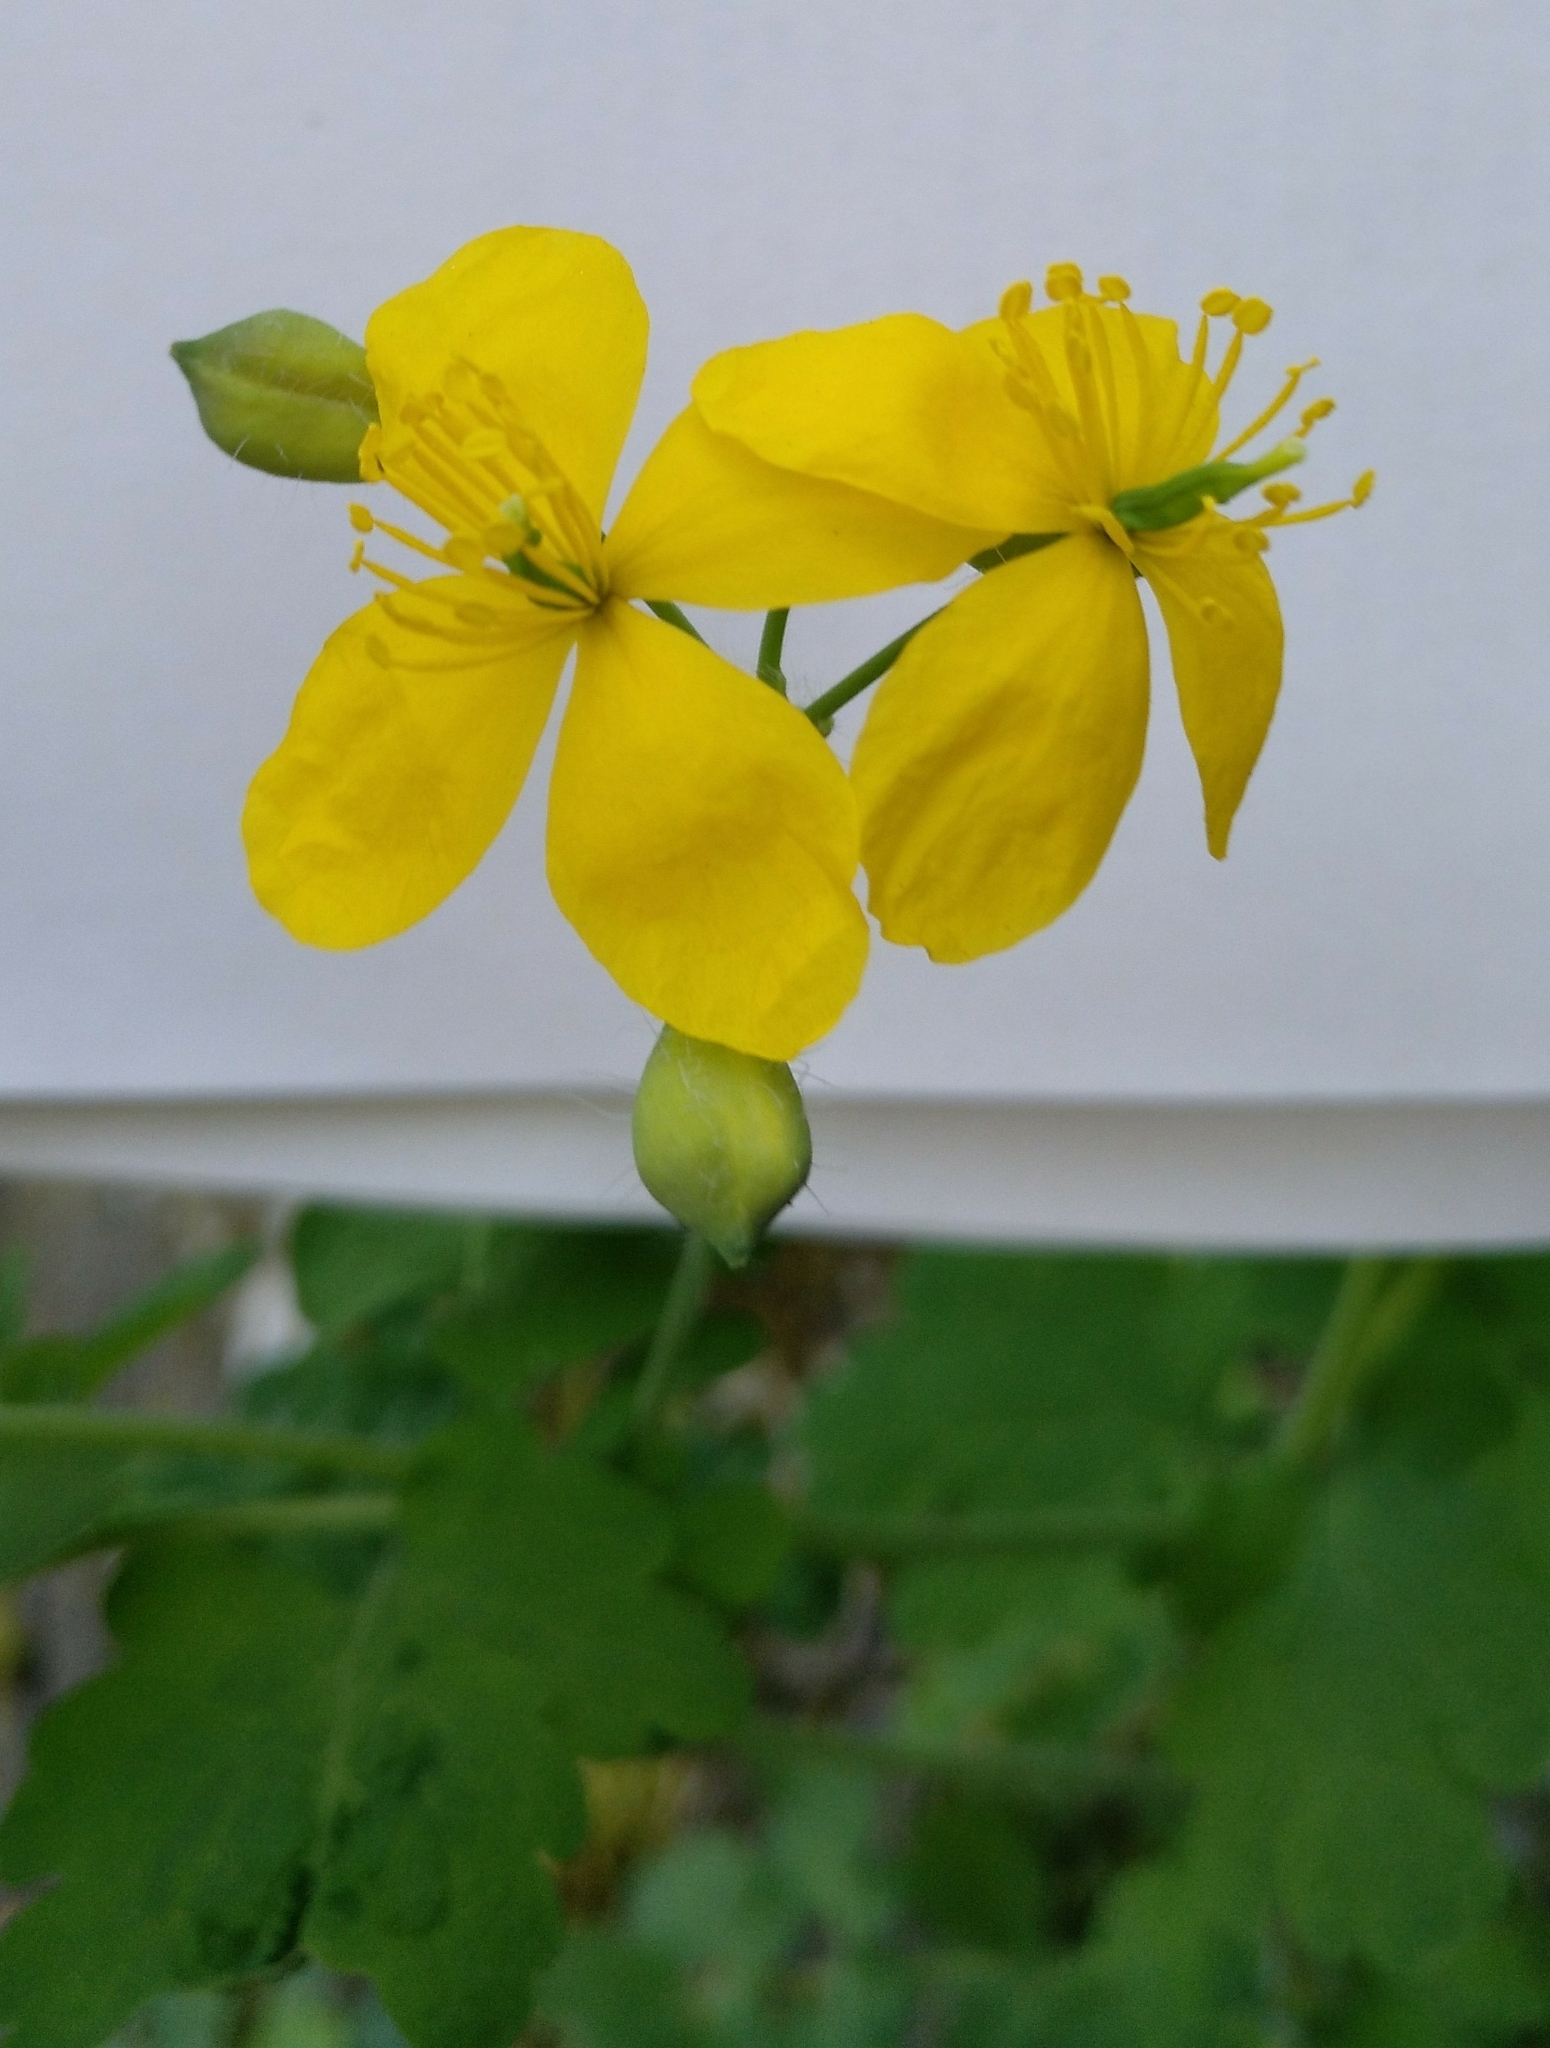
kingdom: Plantae
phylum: Tracheophyta
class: Magnoliopsida
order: Ranunculales
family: Papaveraceae
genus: Chelidonium
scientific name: Chelidonium majus
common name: Greater celandine
